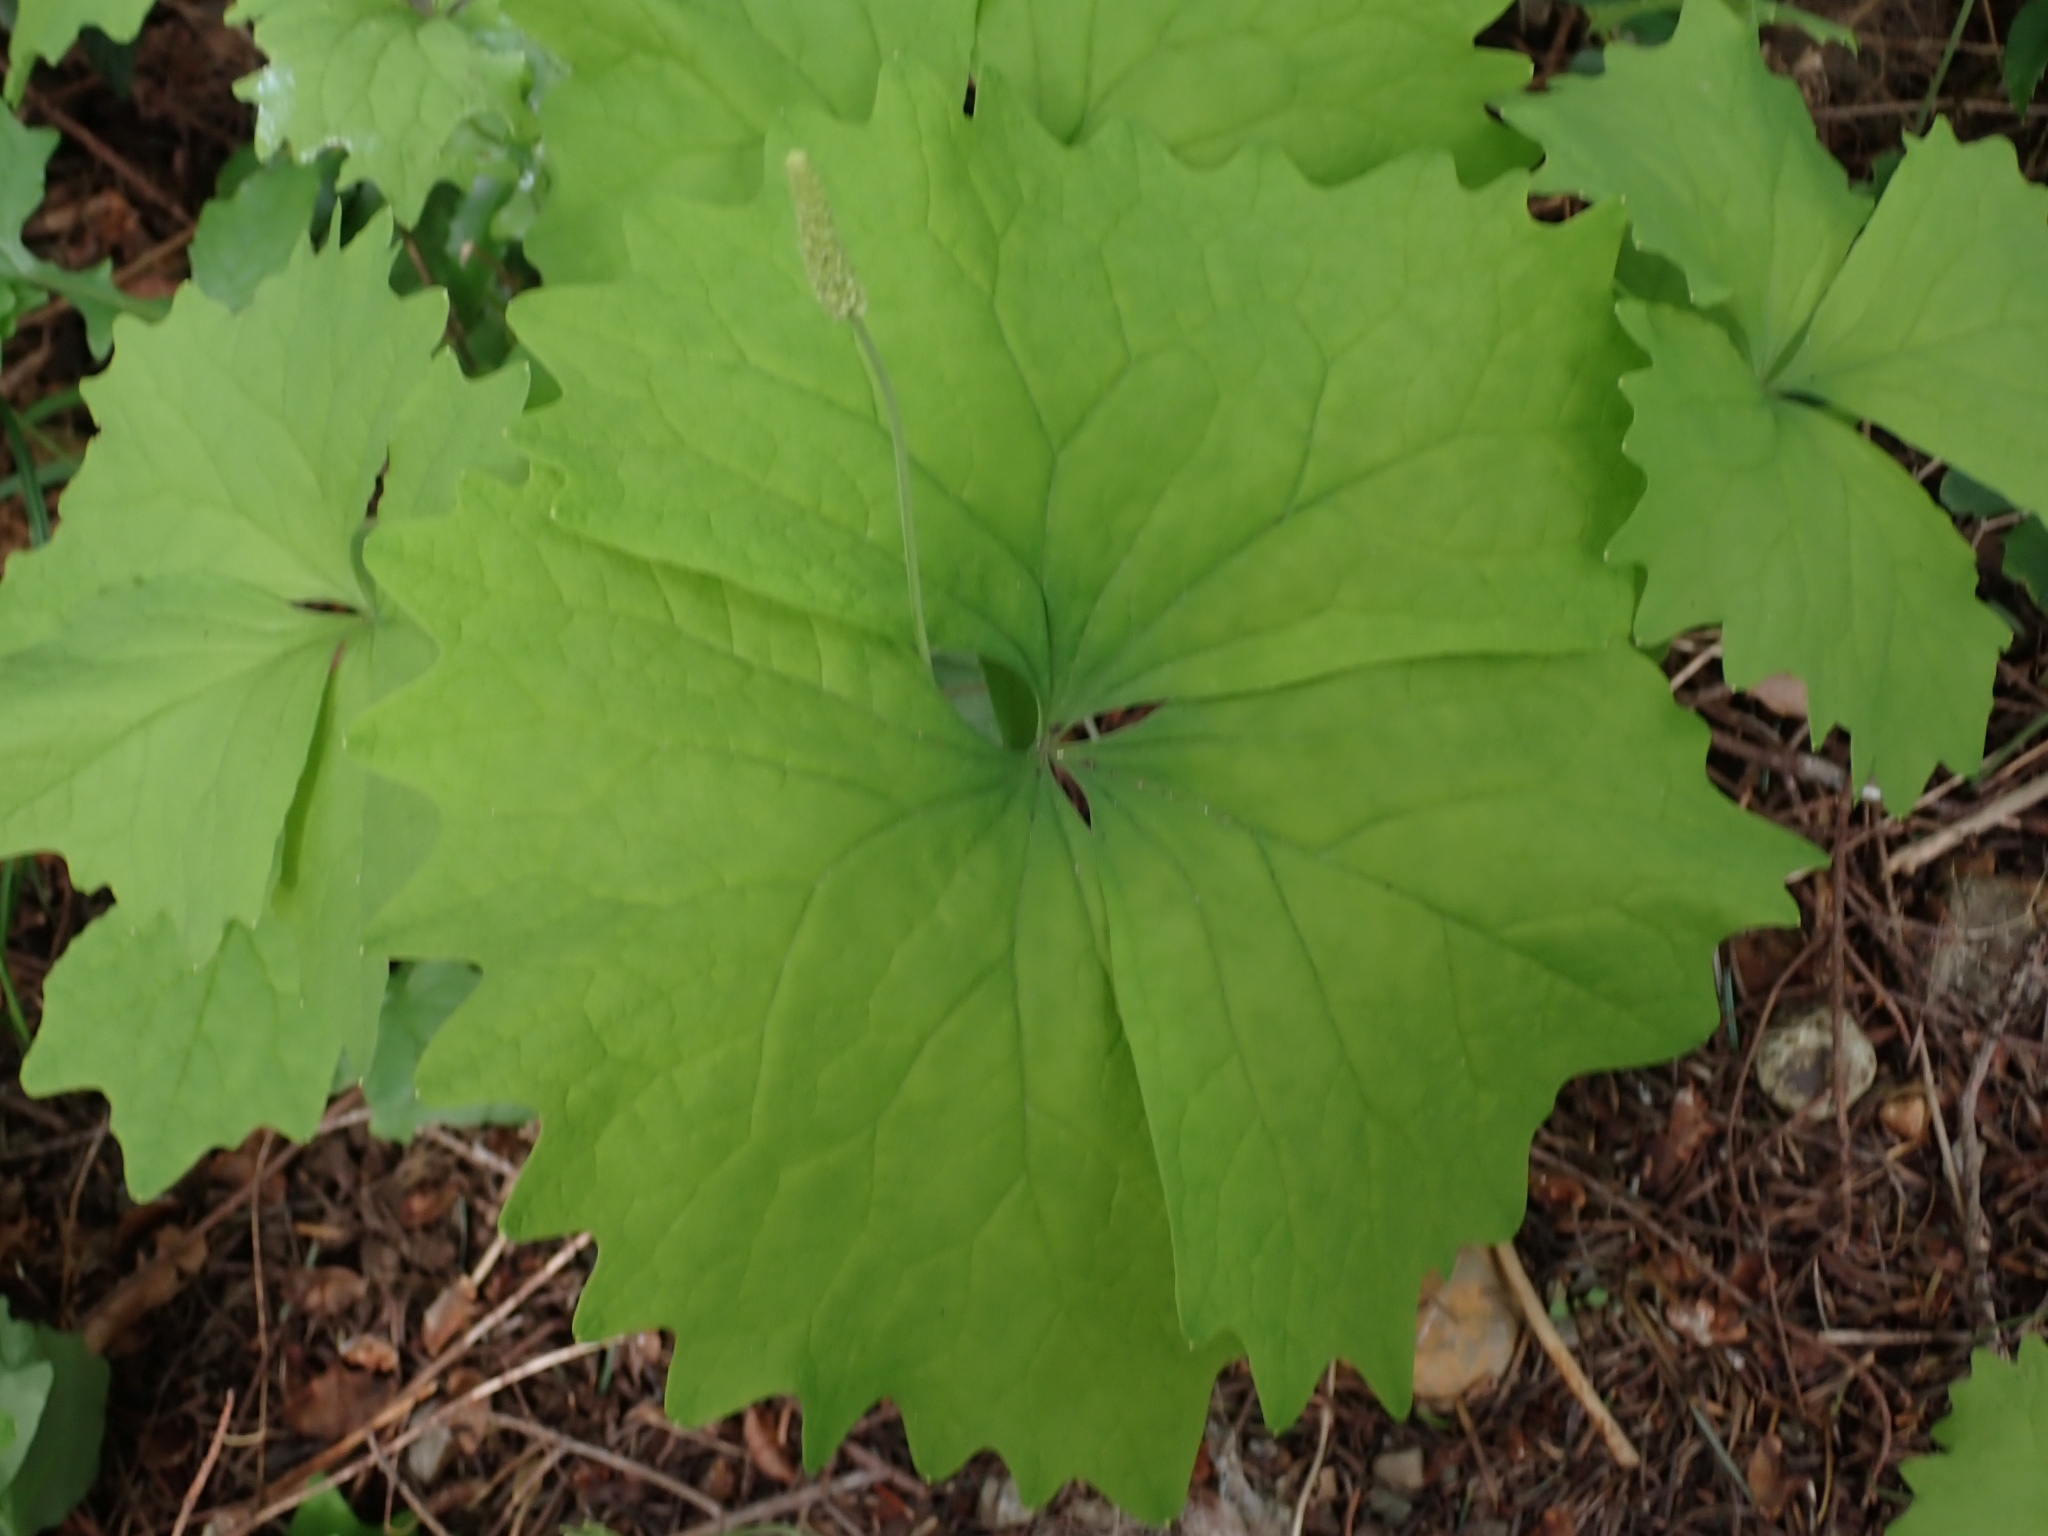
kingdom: Plantae
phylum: Tracheophyta
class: Magnoliopsida
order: Ranunculales
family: Berberidaceae
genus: Achlys
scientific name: Achlys triphylla
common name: Vanilla-leaf
